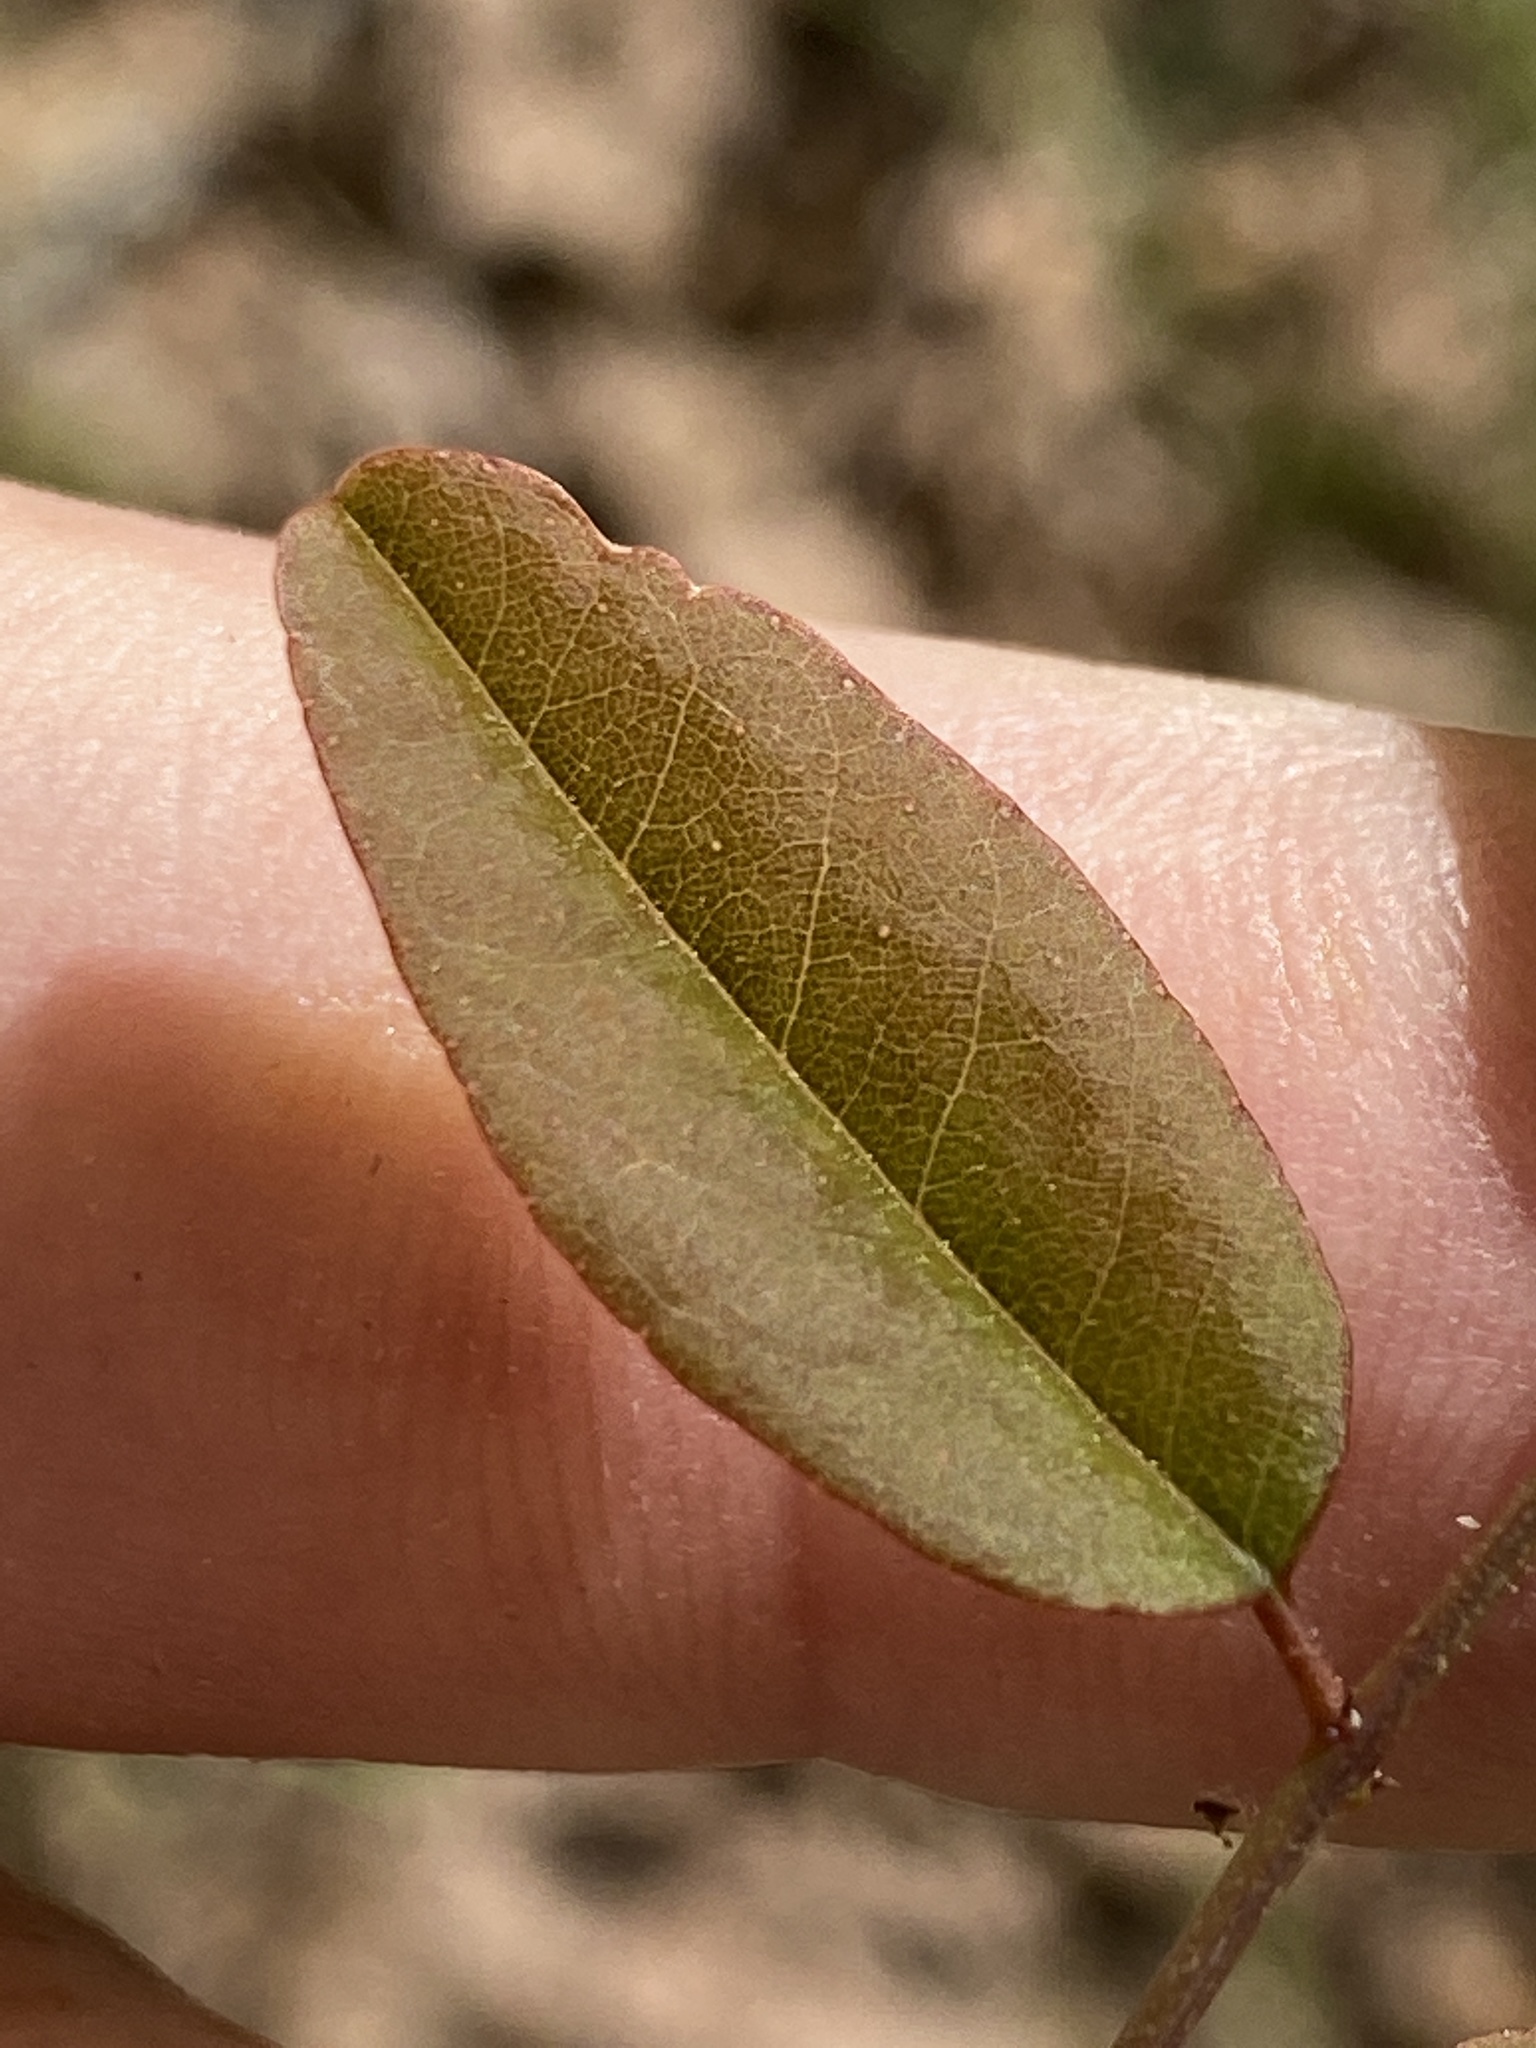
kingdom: Plantae
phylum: Tracheophyta
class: Magnoliopsida
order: Fabales
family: Fabaceae
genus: Amorpha
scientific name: Amorpha glabra
